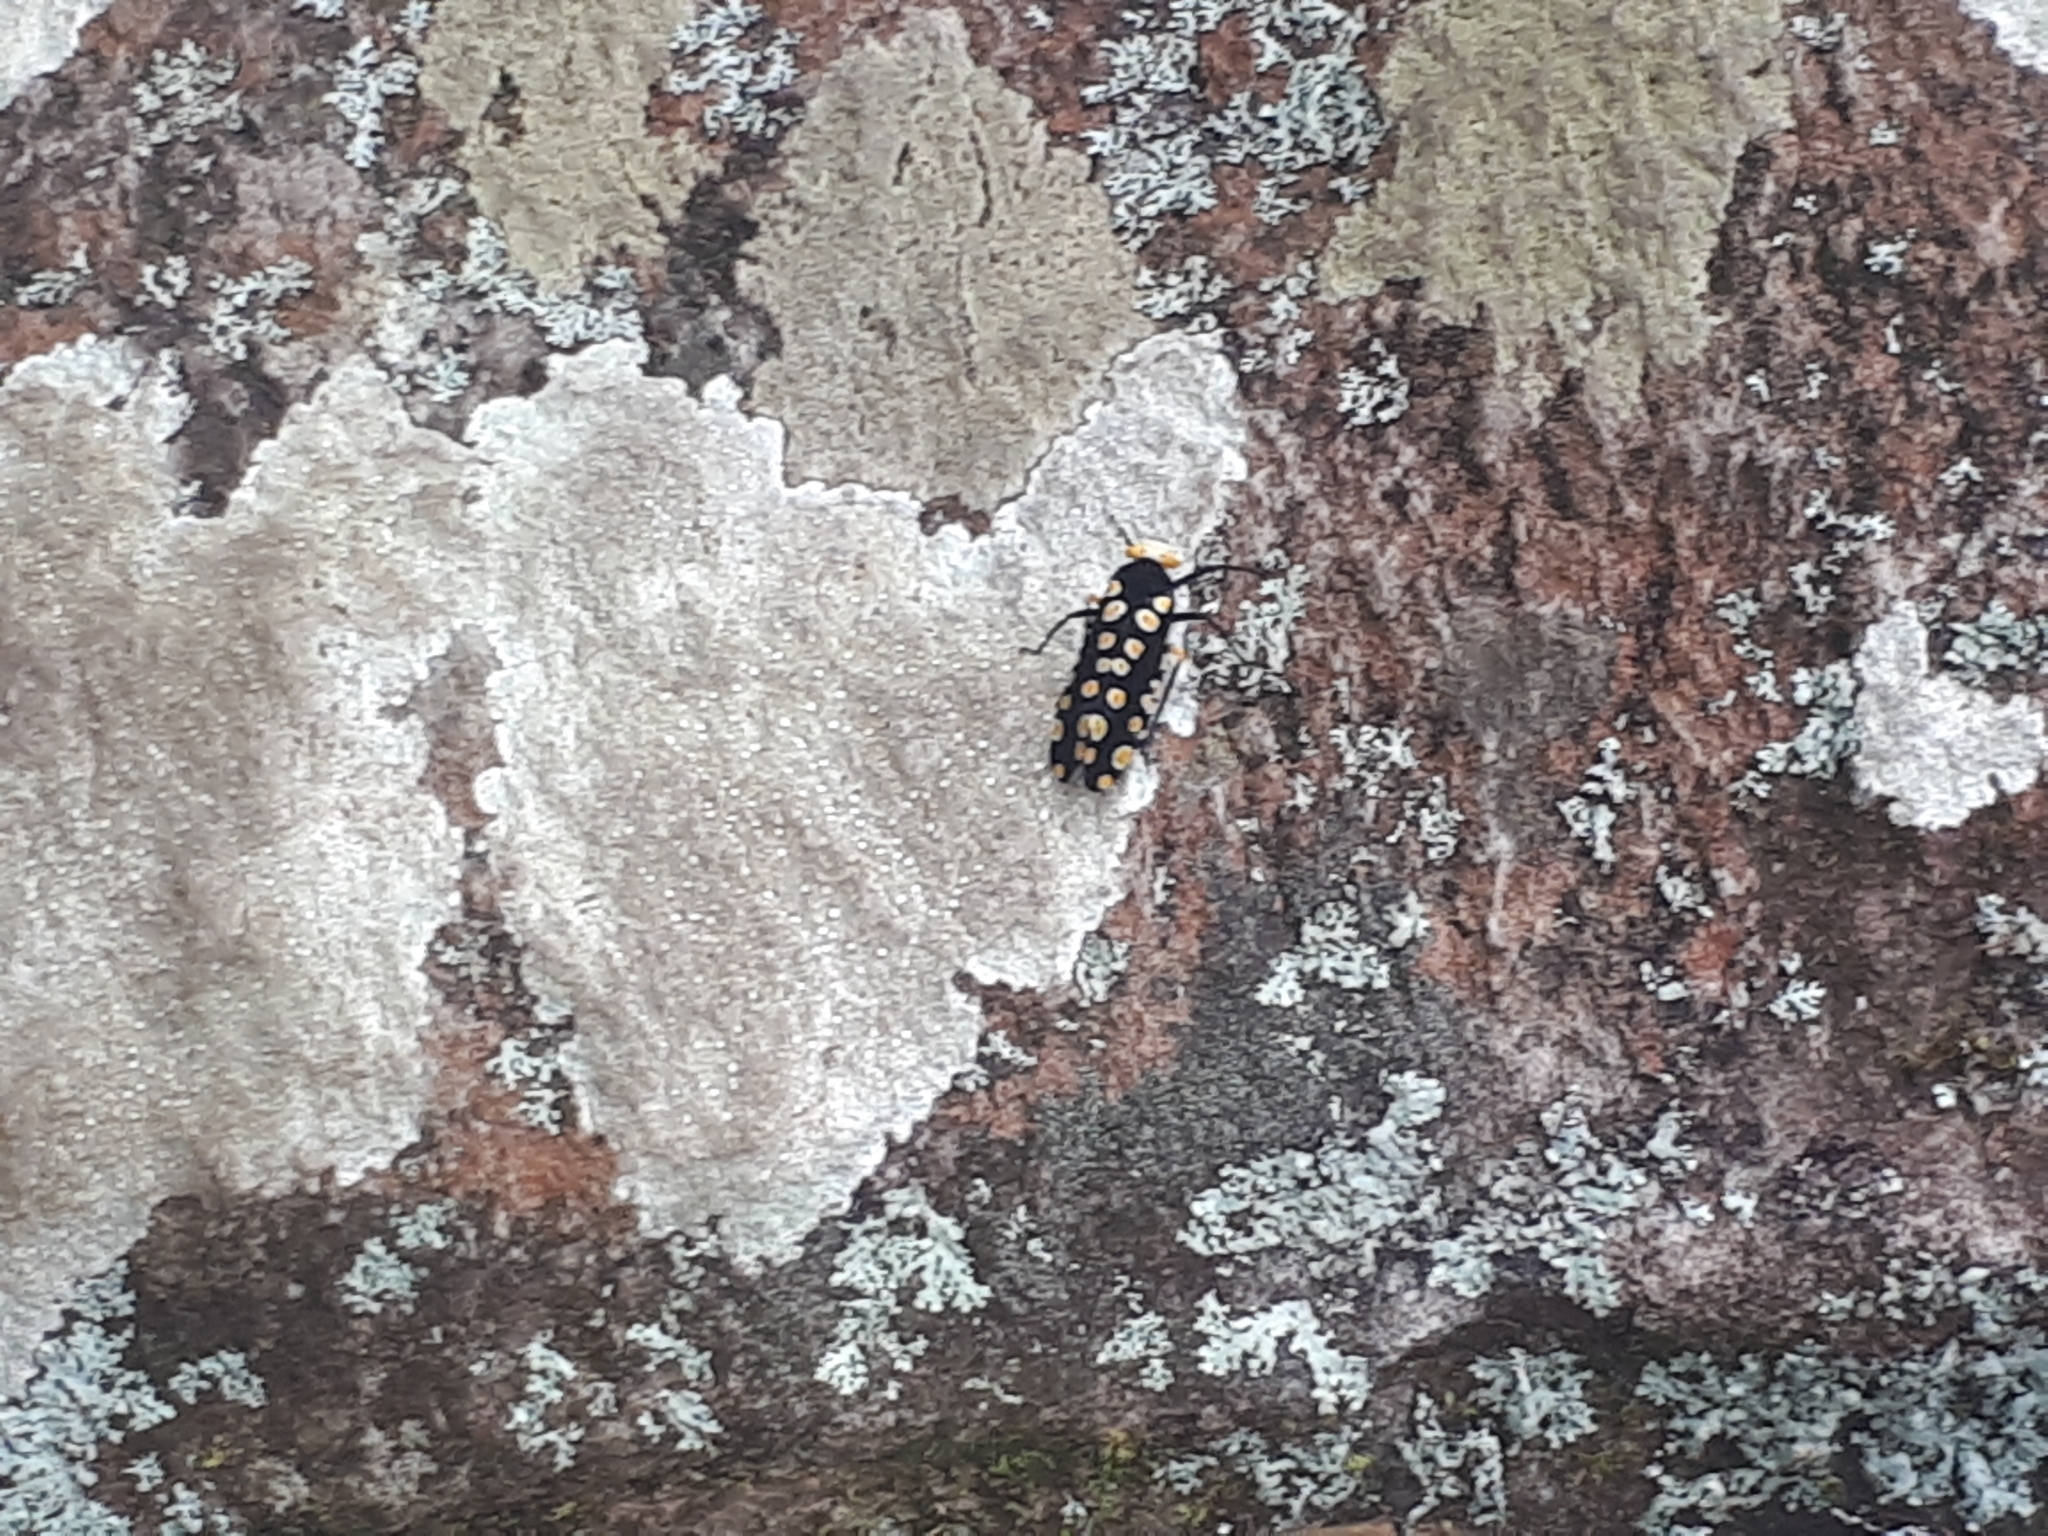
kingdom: Animalia
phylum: Arthropoda
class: Insecta
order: Hemiptera
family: Fulgoridae
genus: Lystrenia
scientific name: Lystrenia dyrceae
